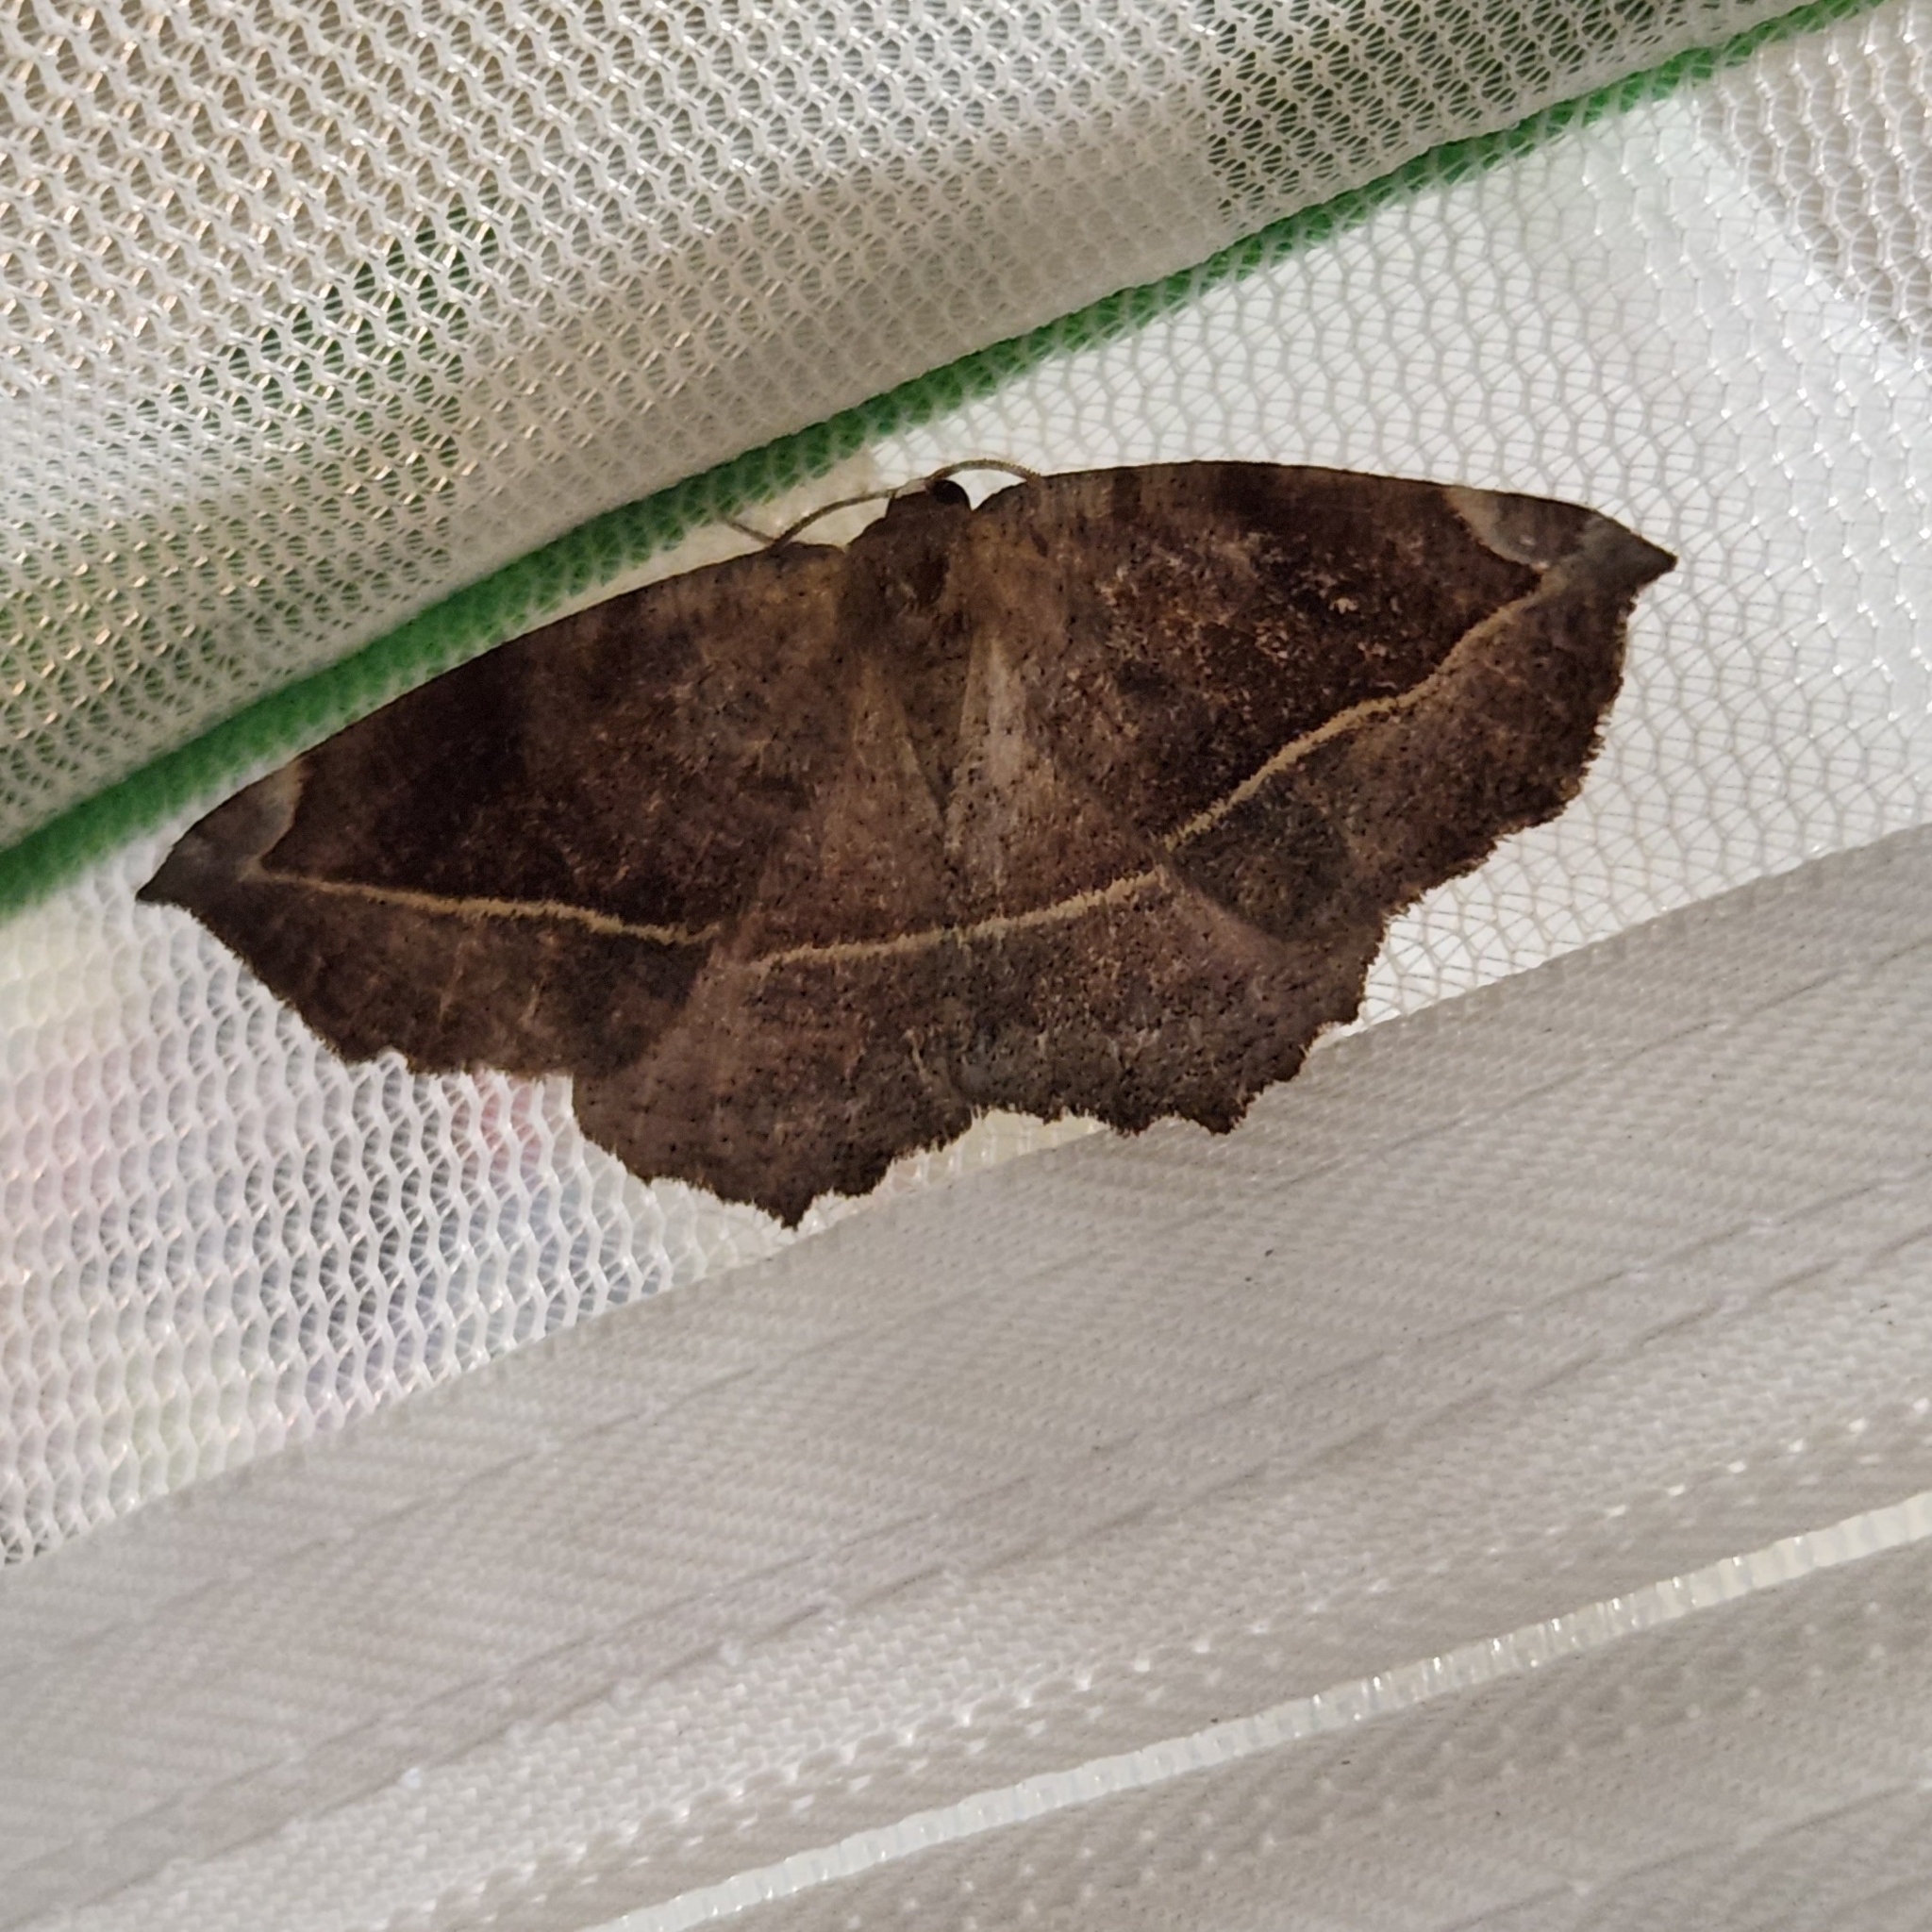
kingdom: Animalia
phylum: Arthropoda
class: Insecta
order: Lepidoptera
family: Geometridae
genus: Eutrapela
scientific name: Eutrapela clemataria
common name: Curved-toothed geometer
